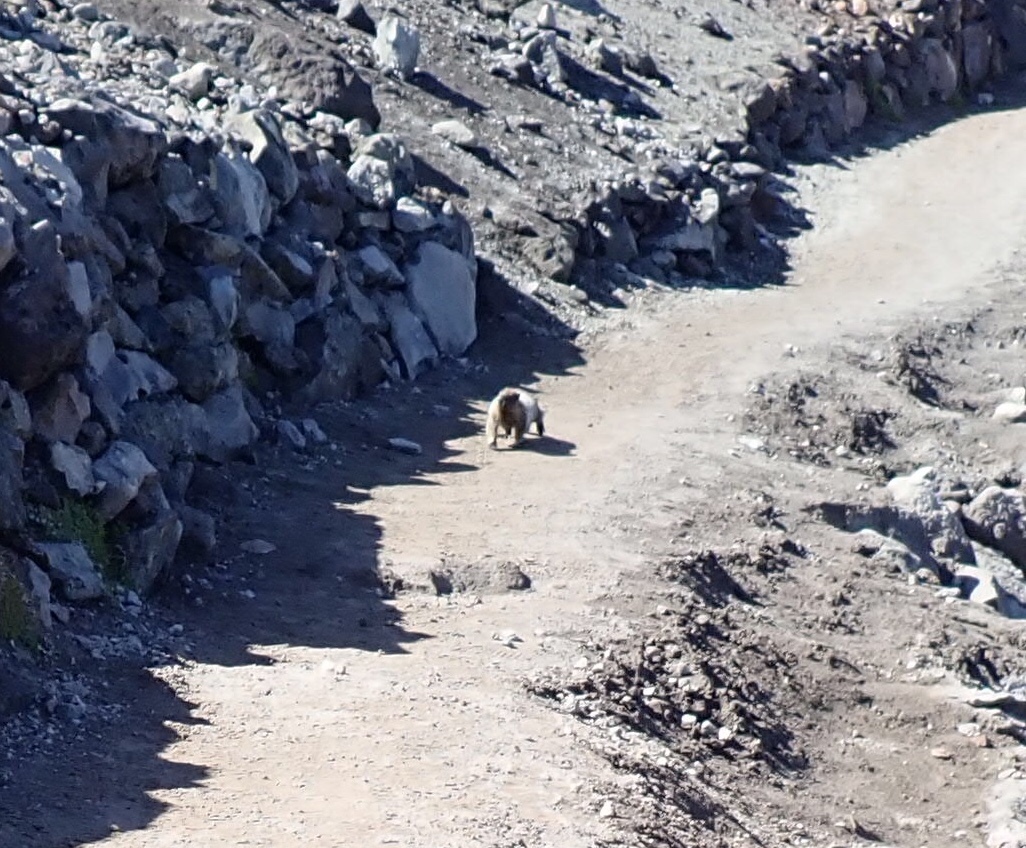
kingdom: Animalia
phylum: Chordata
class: Mammalia
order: Rodentia
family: Sciuridae
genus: Marmota
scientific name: Marmota caligata
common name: Hoary marmot
